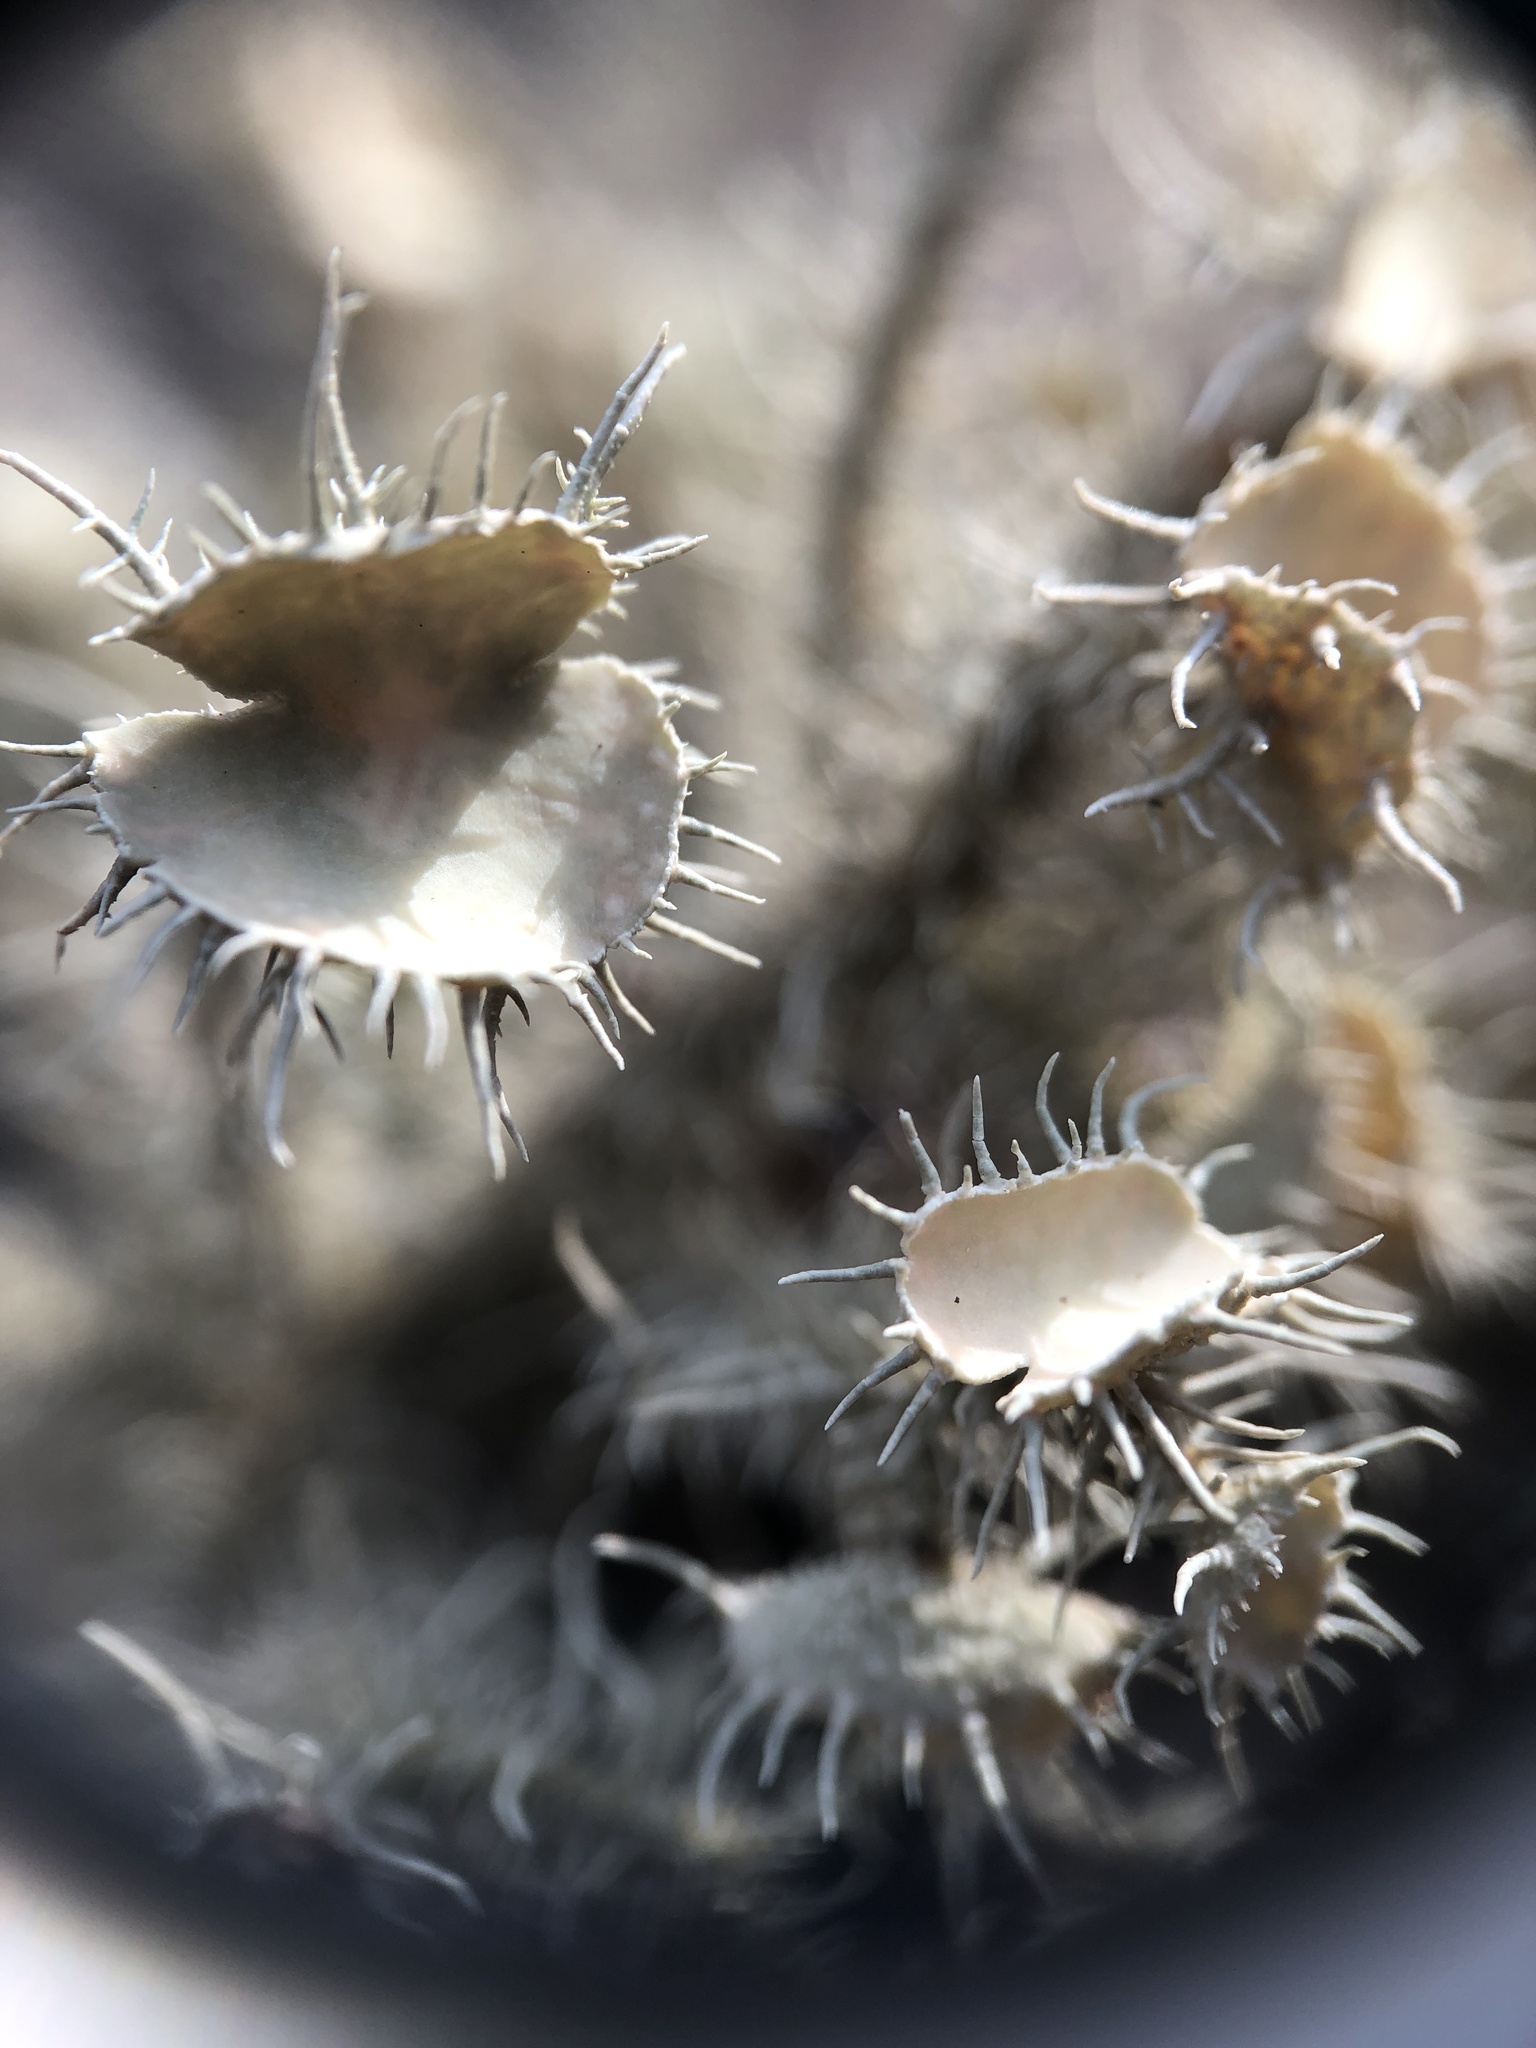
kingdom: Fungi
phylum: Ascomycota
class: Lecanoromycetes
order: Lecanorales
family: Parmeliaceae
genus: Usnea
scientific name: Usnea strigosa
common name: Bushy beard lichen
